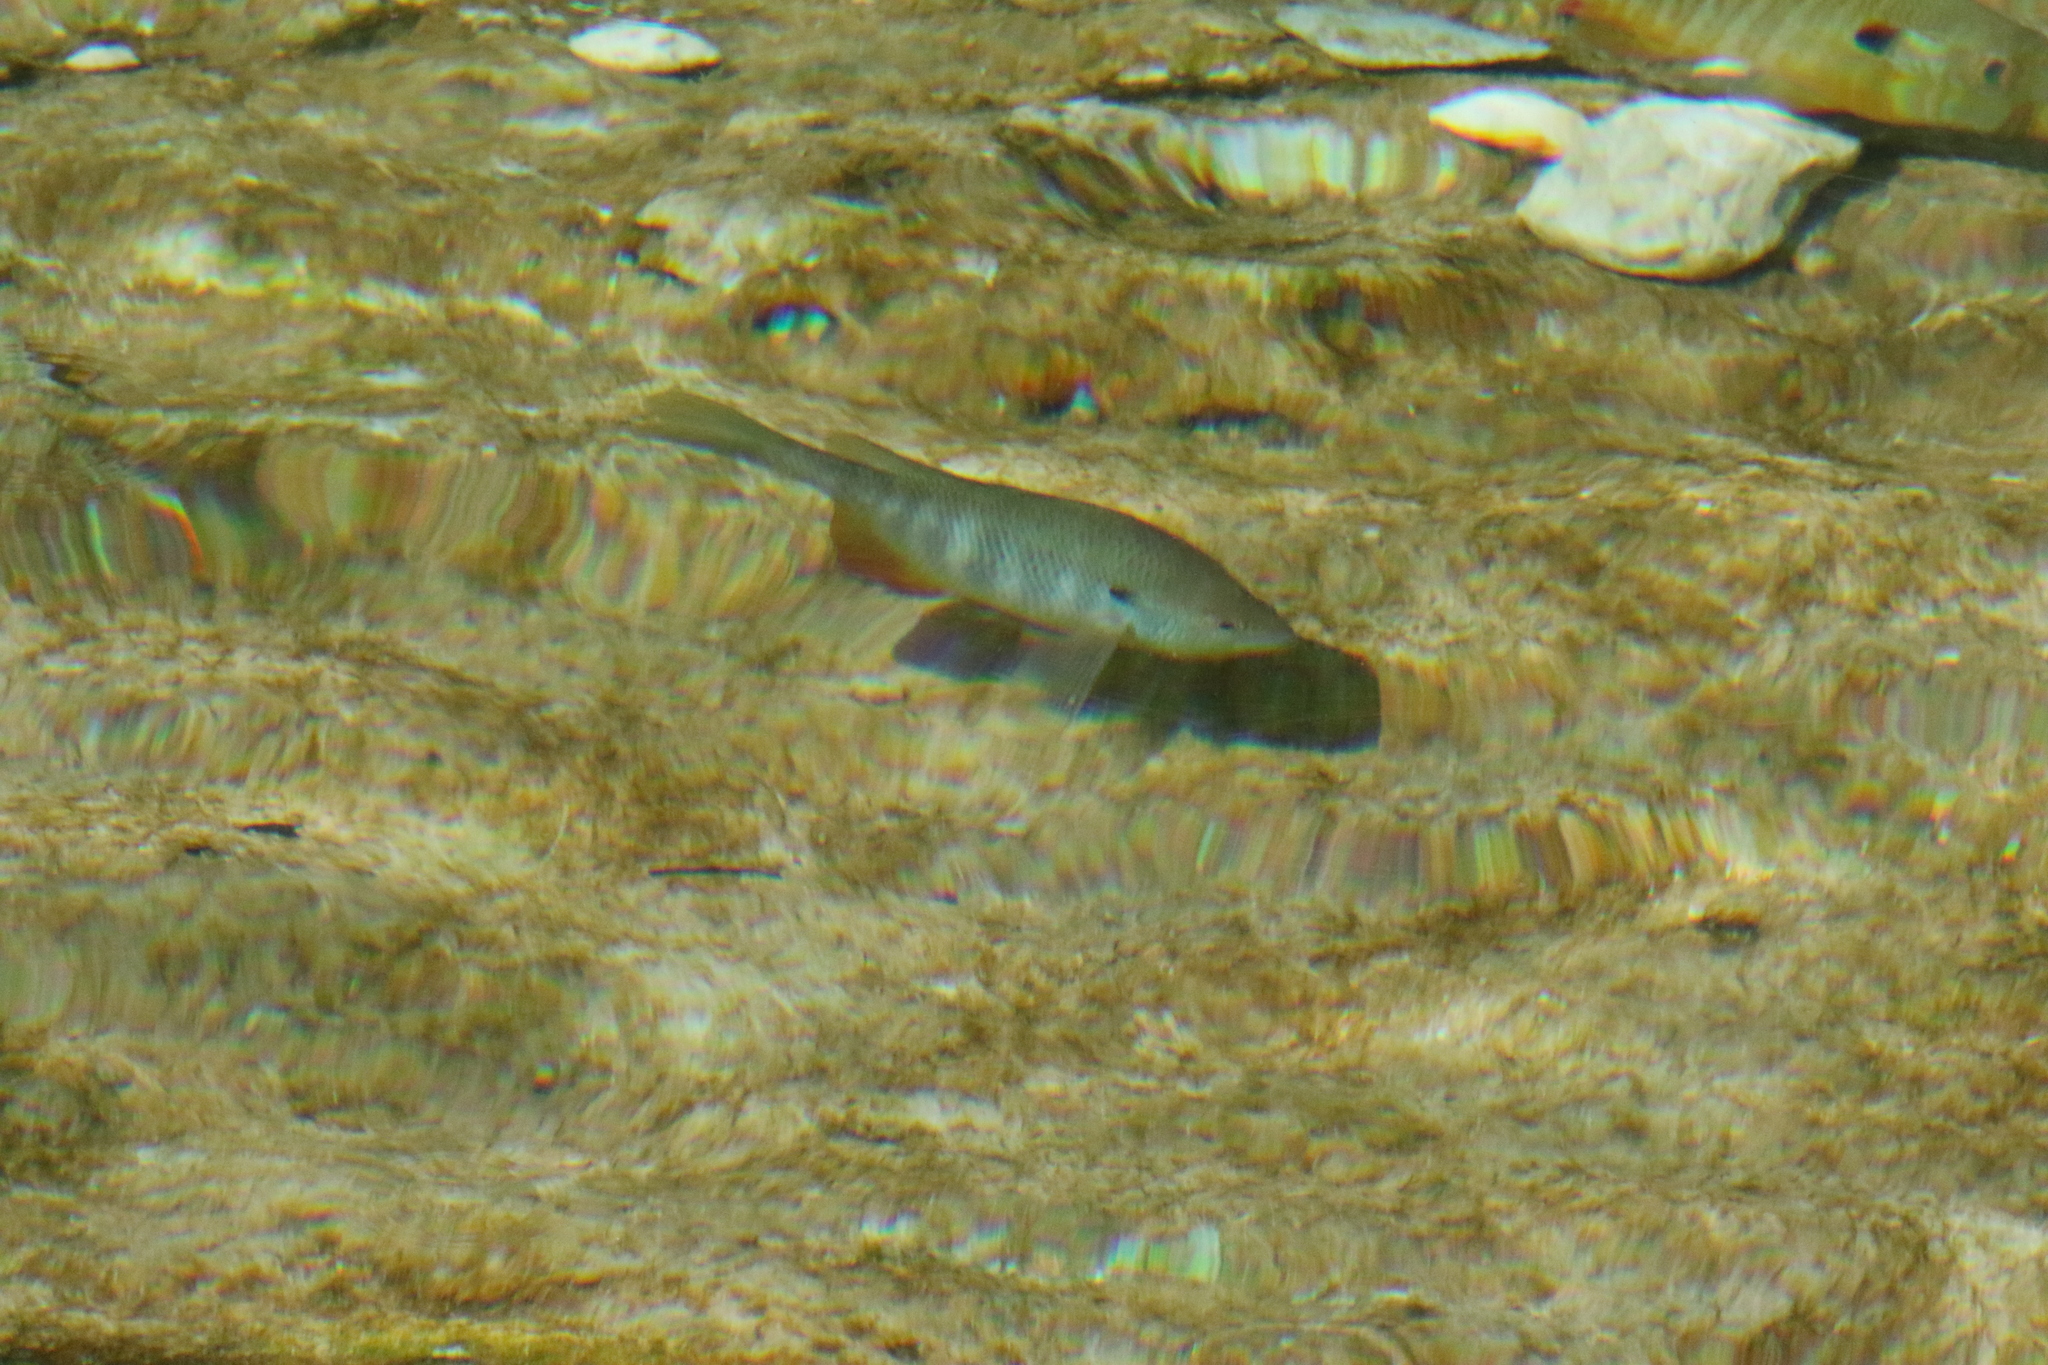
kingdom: Animalia
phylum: Chordata
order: Perciformes
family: Centrarchidae
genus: Lepomis
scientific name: Lepomis megalotis
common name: Longear sunfish
